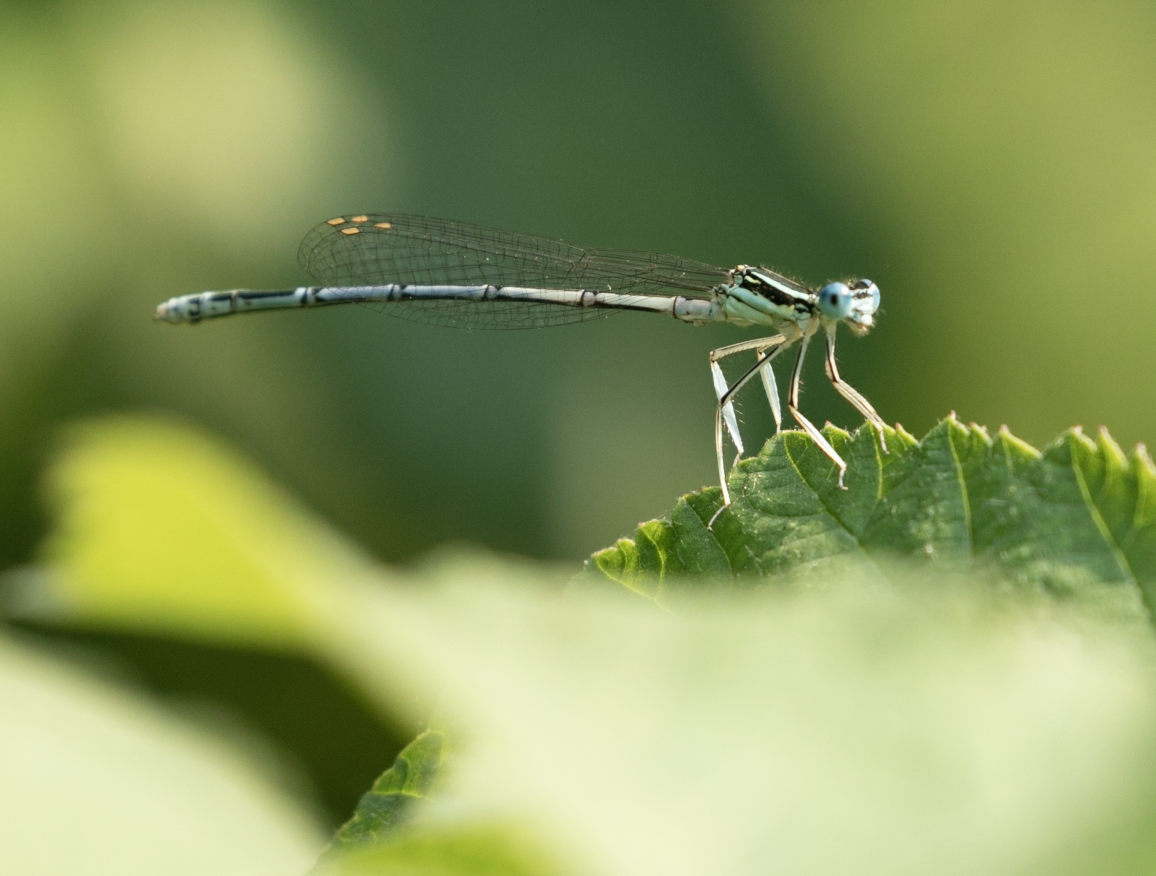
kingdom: Animalia
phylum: Arthropoda
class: Insecta
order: Odonata
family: Platycnemididae
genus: Platycnemis
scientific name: Platycnemis pennipes
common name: White-legged damselfly
